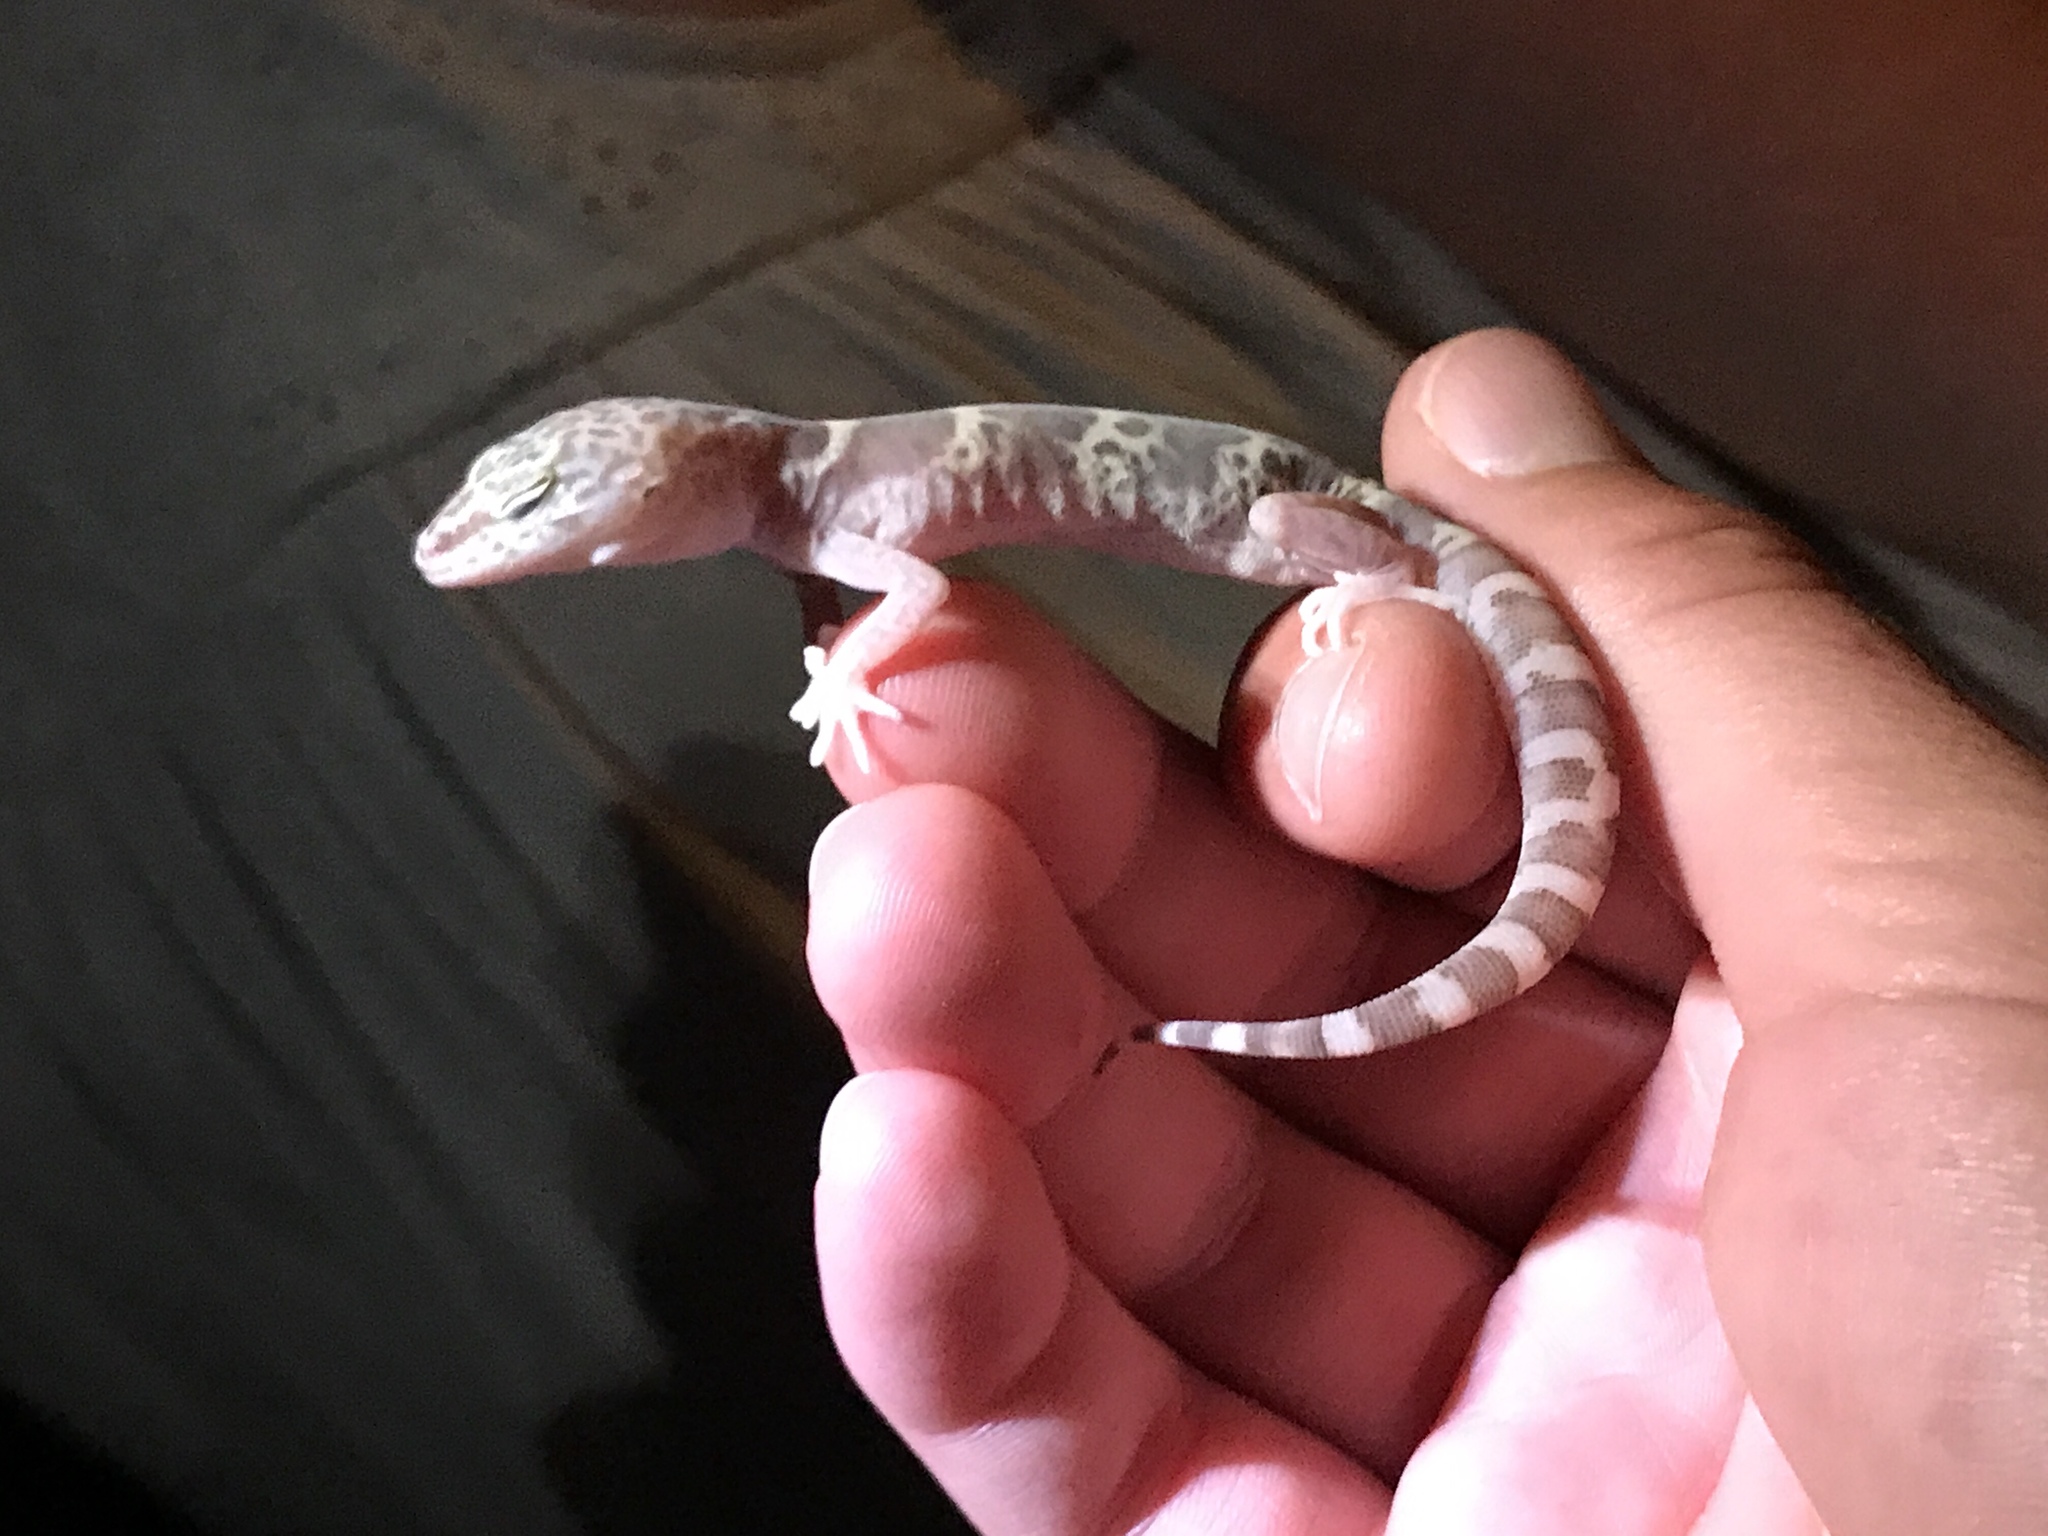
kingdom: Animalia
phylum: Chordata
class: Squamata
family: Eublepharidae
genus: Coleonyx
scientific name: Coleonyx variegatus
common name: Western banded gecko
